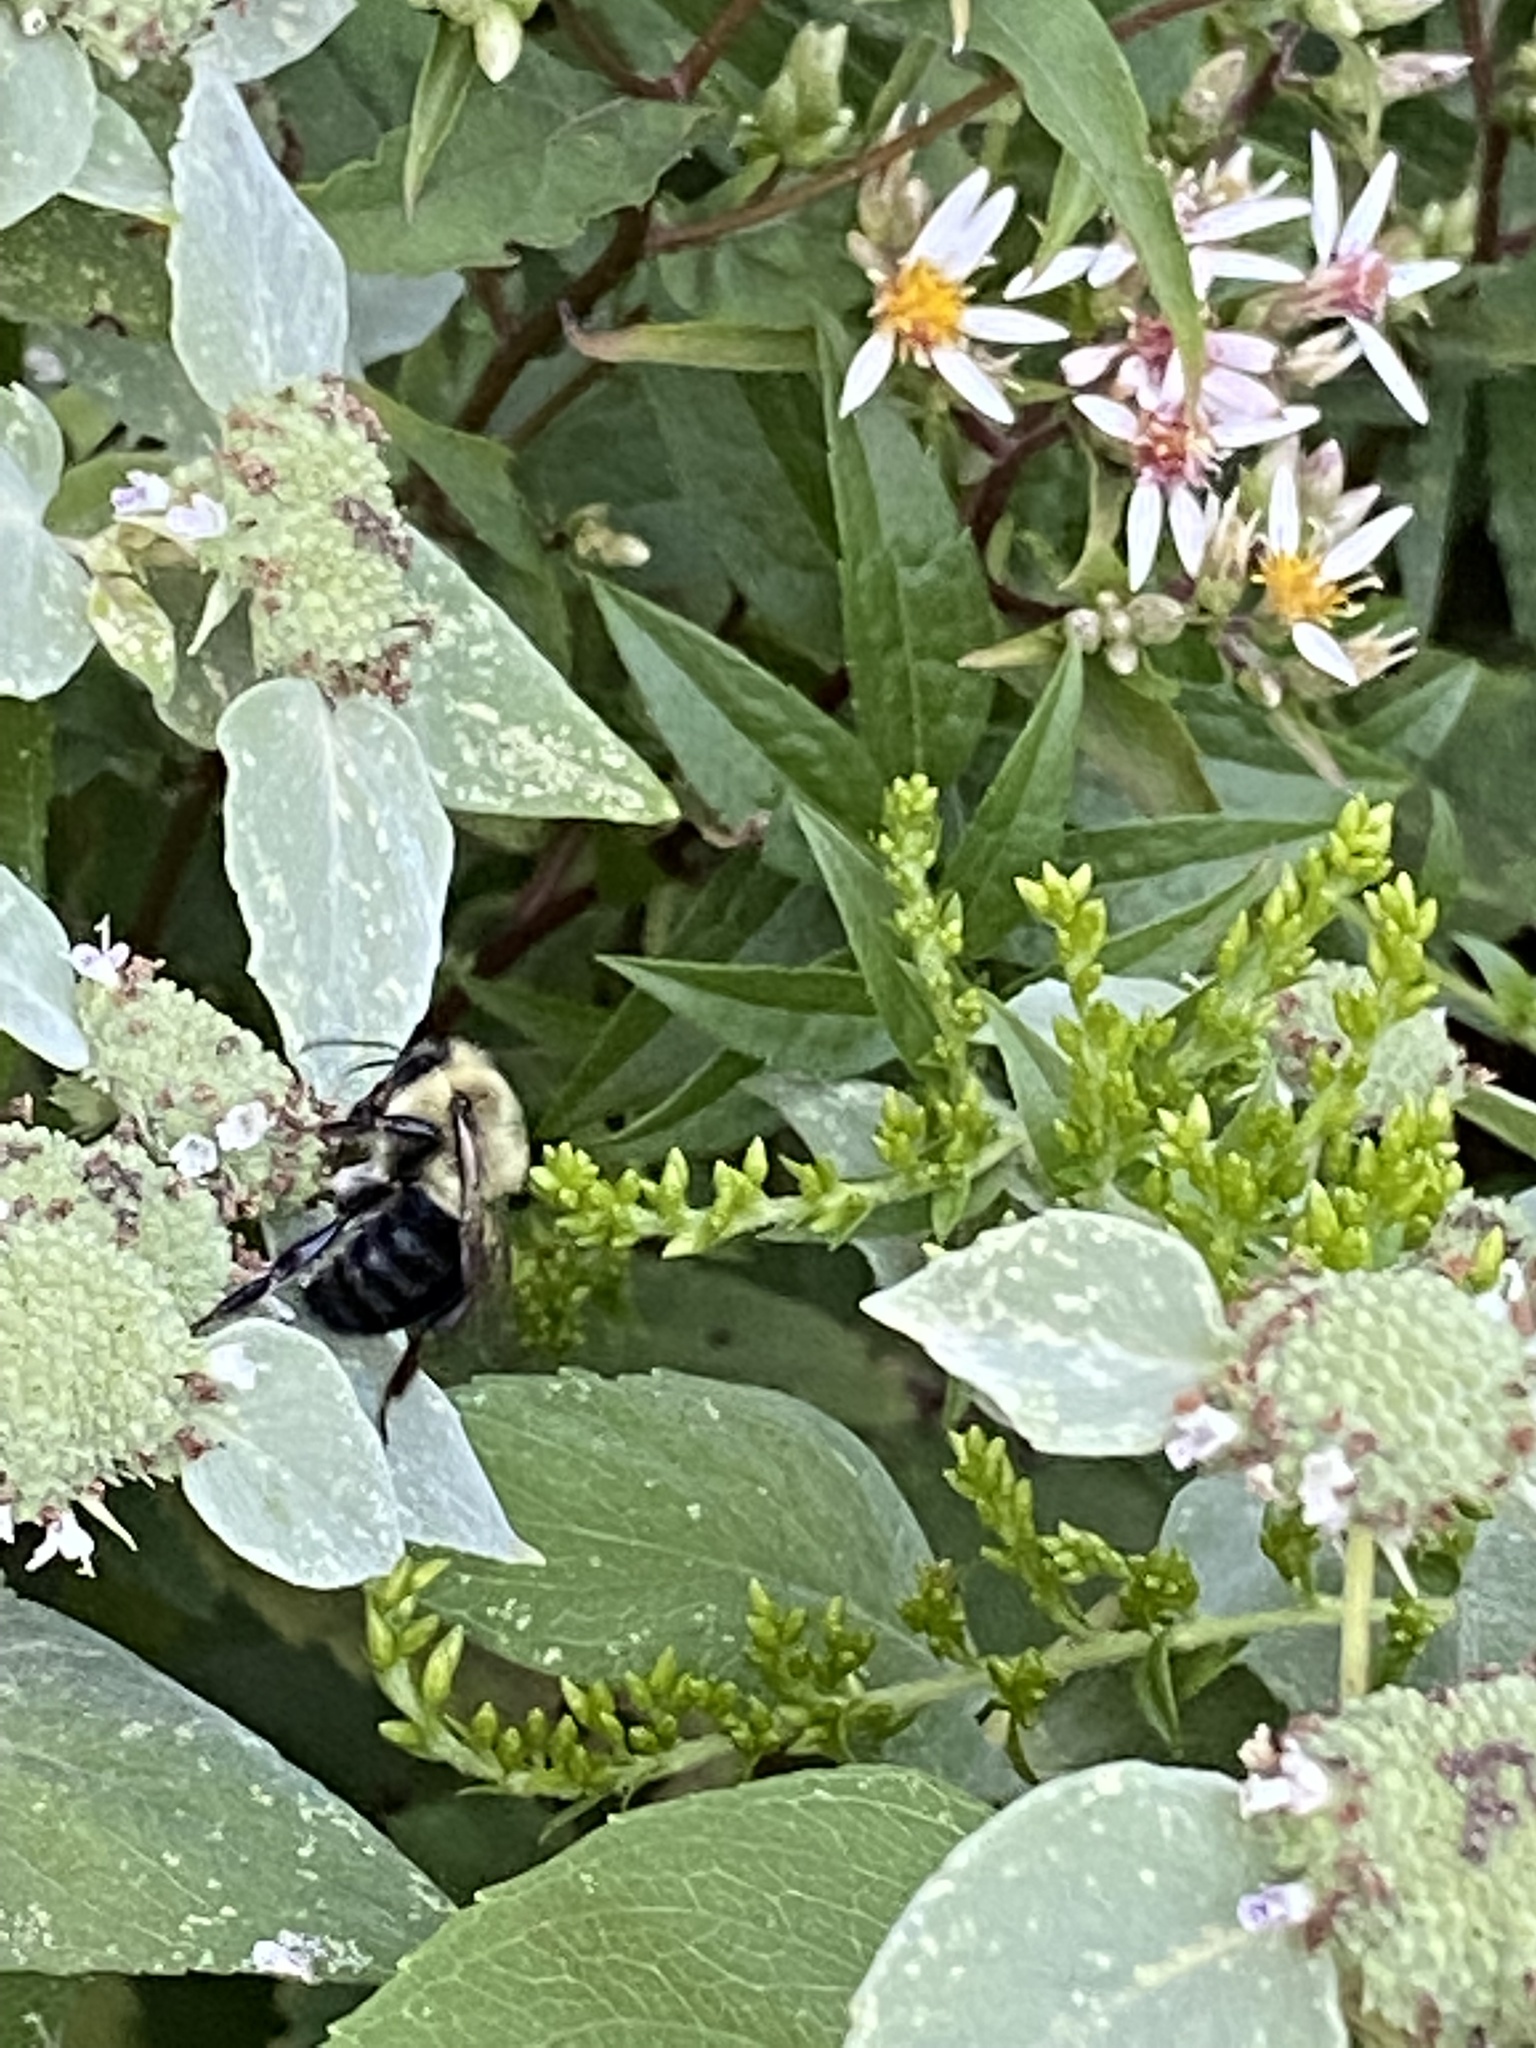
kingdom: Animalia
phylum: Arthropoda
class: Insecta
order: Hymenoptera
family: Apidae
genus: Bombus
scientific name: Bombus impatiens
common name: Common eastern bumble bee
